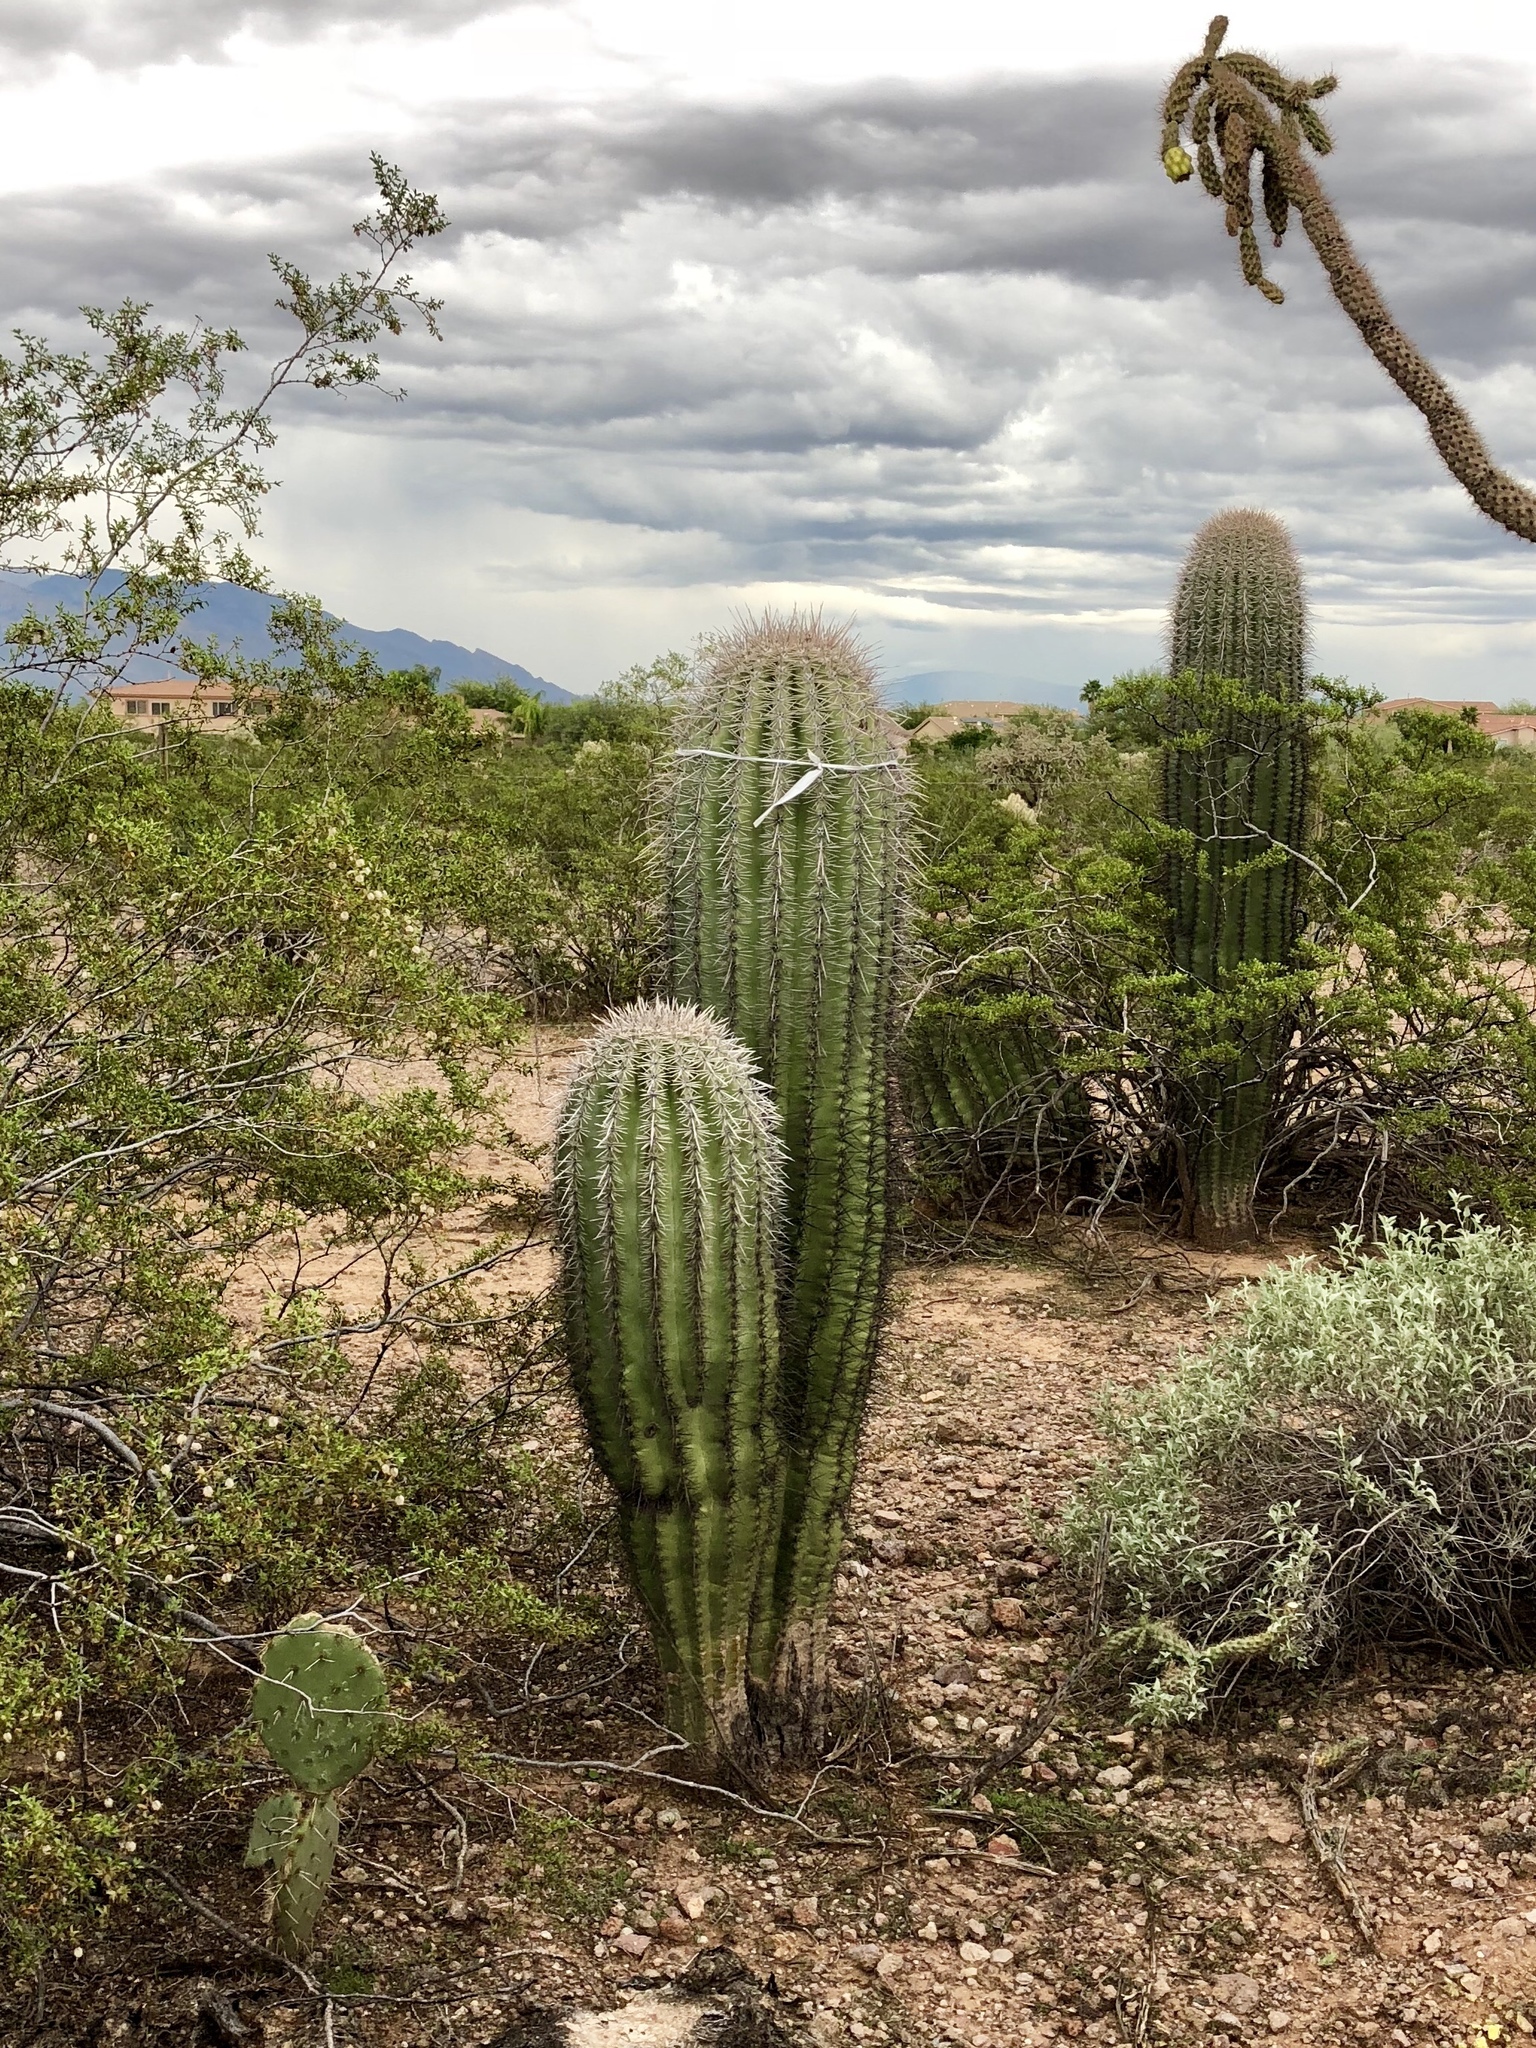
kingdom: Plantae
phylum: Tracheophyta
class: Magnoliopsida
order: Caryophyllales
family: Cactaceae
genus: Carnegiea
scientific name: Carnegiea gigantea
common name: Saguaro
